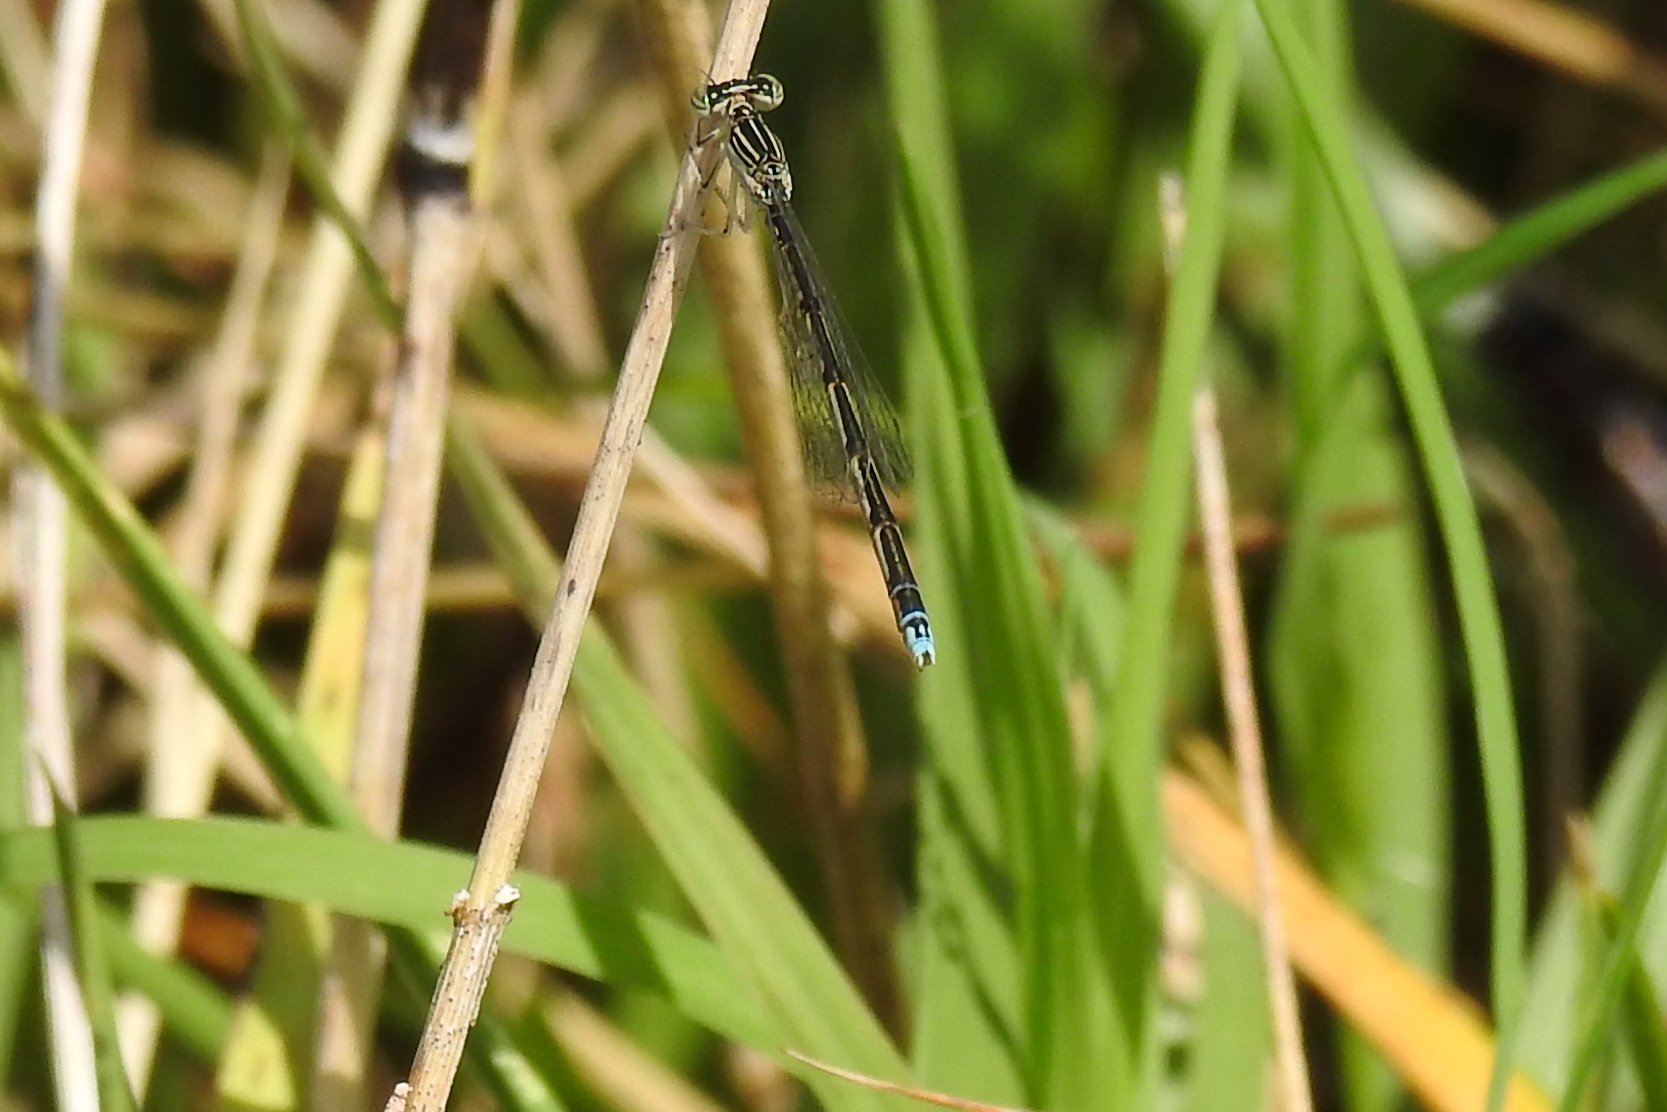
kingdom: Animalia
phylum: Arthropoda
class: Insecta
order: Odonata
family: Coenagrionidae
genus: Enallagma
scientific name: Enallagma basidens
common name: Double-striped bluet
